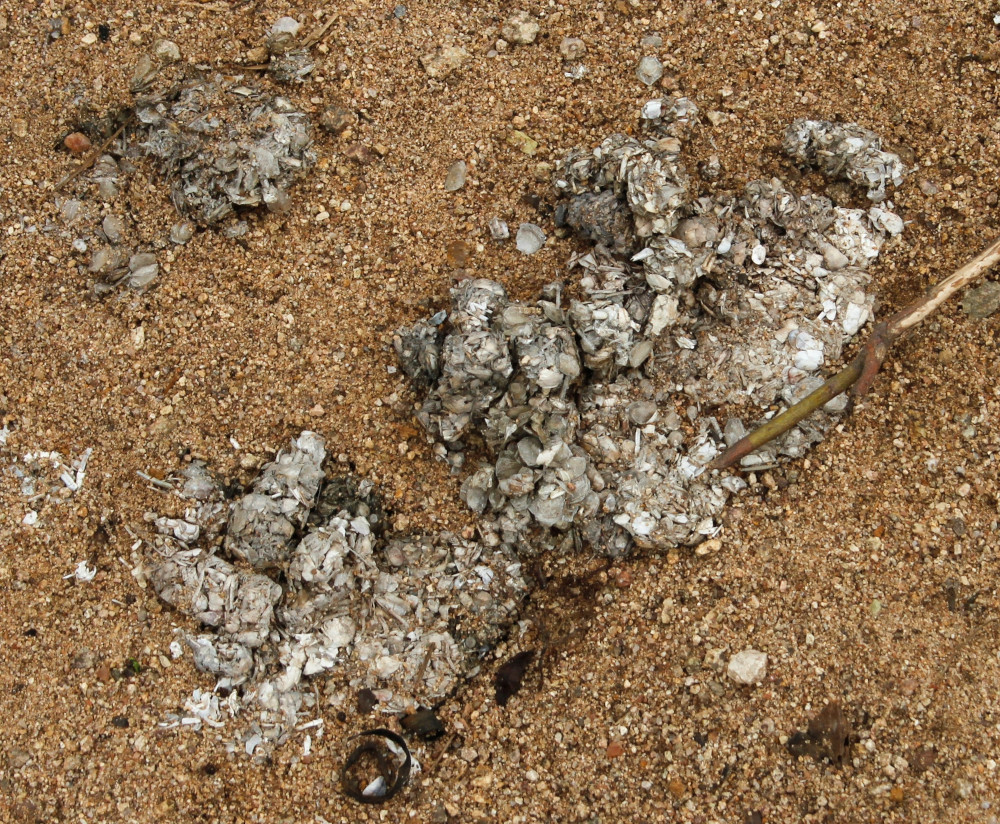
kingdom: Animalia
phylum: Chordata
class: Mammalia
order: Carnivora
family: Mustelidae
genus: Lontra
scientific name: Lontra canadensis
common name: North american river otter
